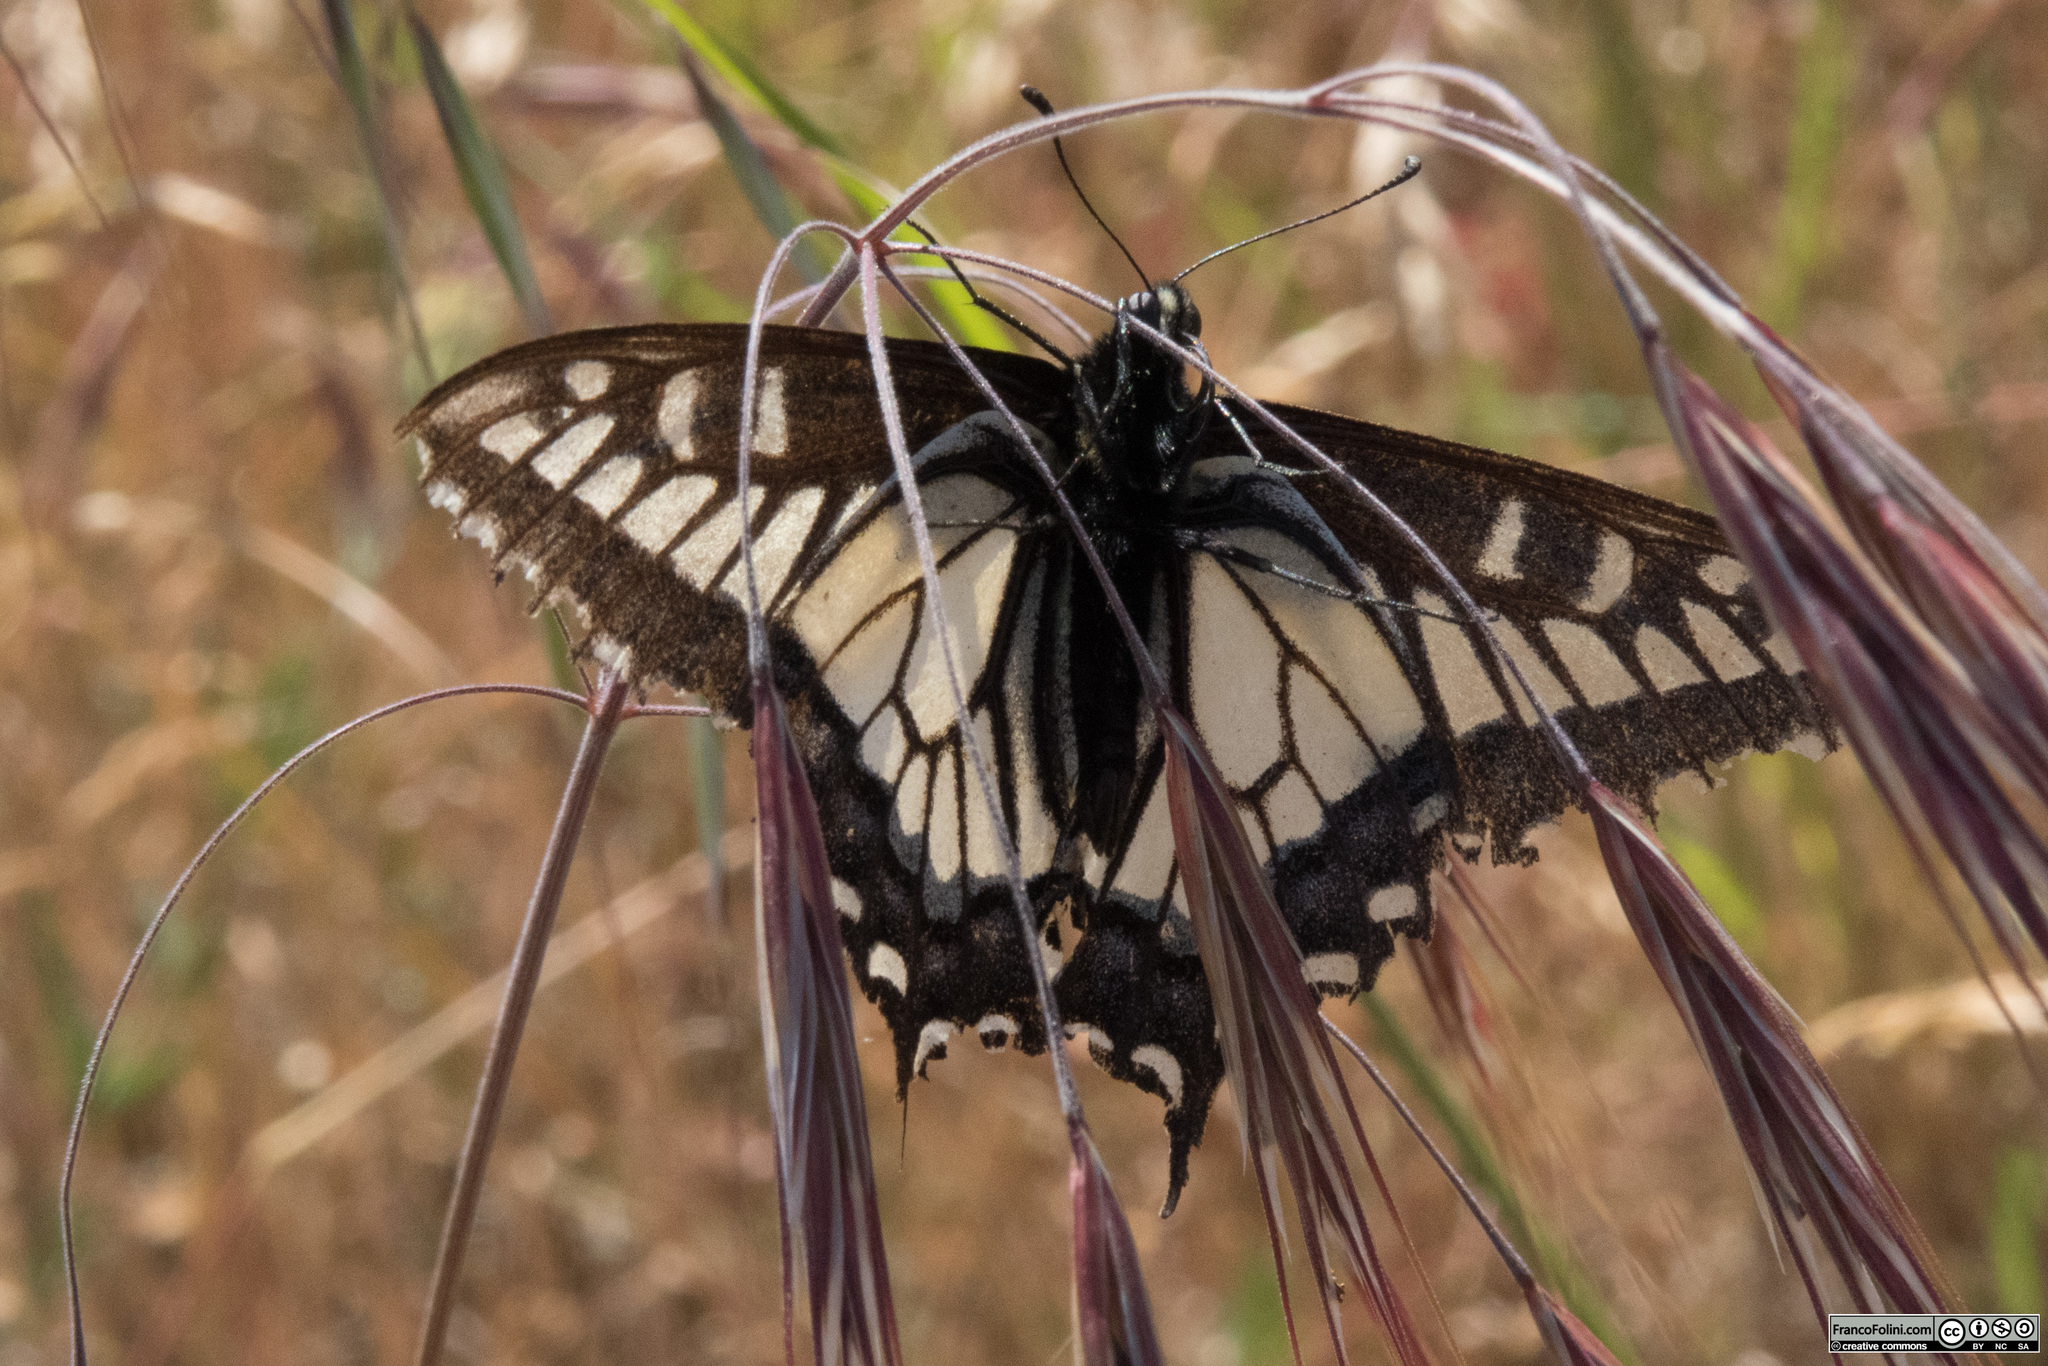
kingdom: Animalia
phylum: Arthropoda
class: Insecta
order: Lepidoptera
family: Papilionidae
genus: Papilio
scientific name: Papilio zelicaon
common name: Anise swallowtail
